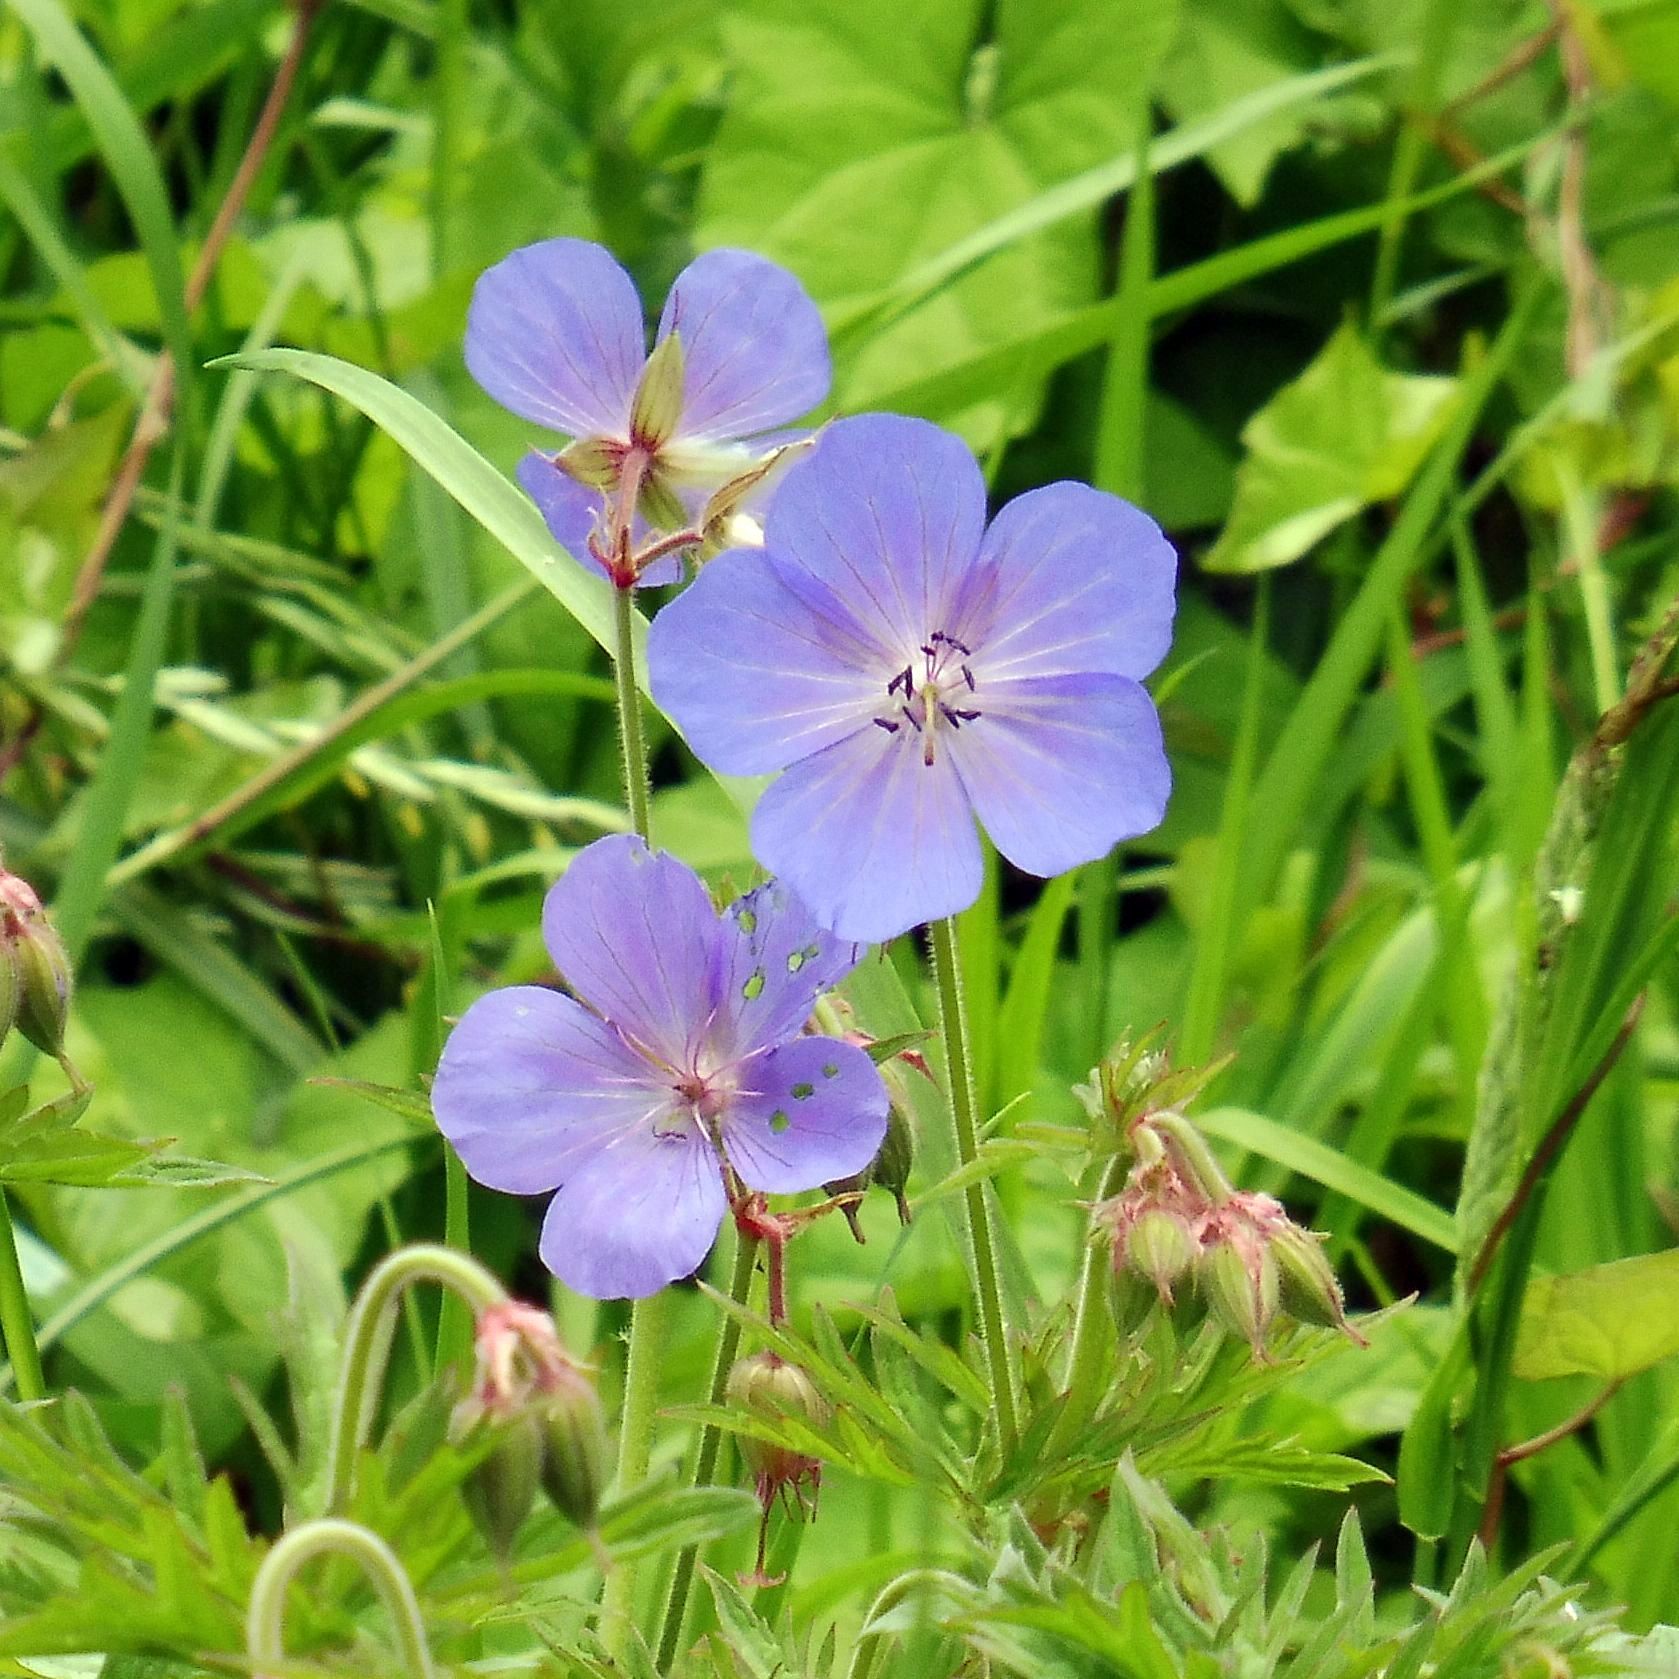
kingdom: Plantae
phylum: Tracheophyta
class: Magnoliopsida
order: Geraniales
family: Geraniaceae
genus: Geranium
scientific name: Geranium pratense
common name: Meadow crane's-bill
